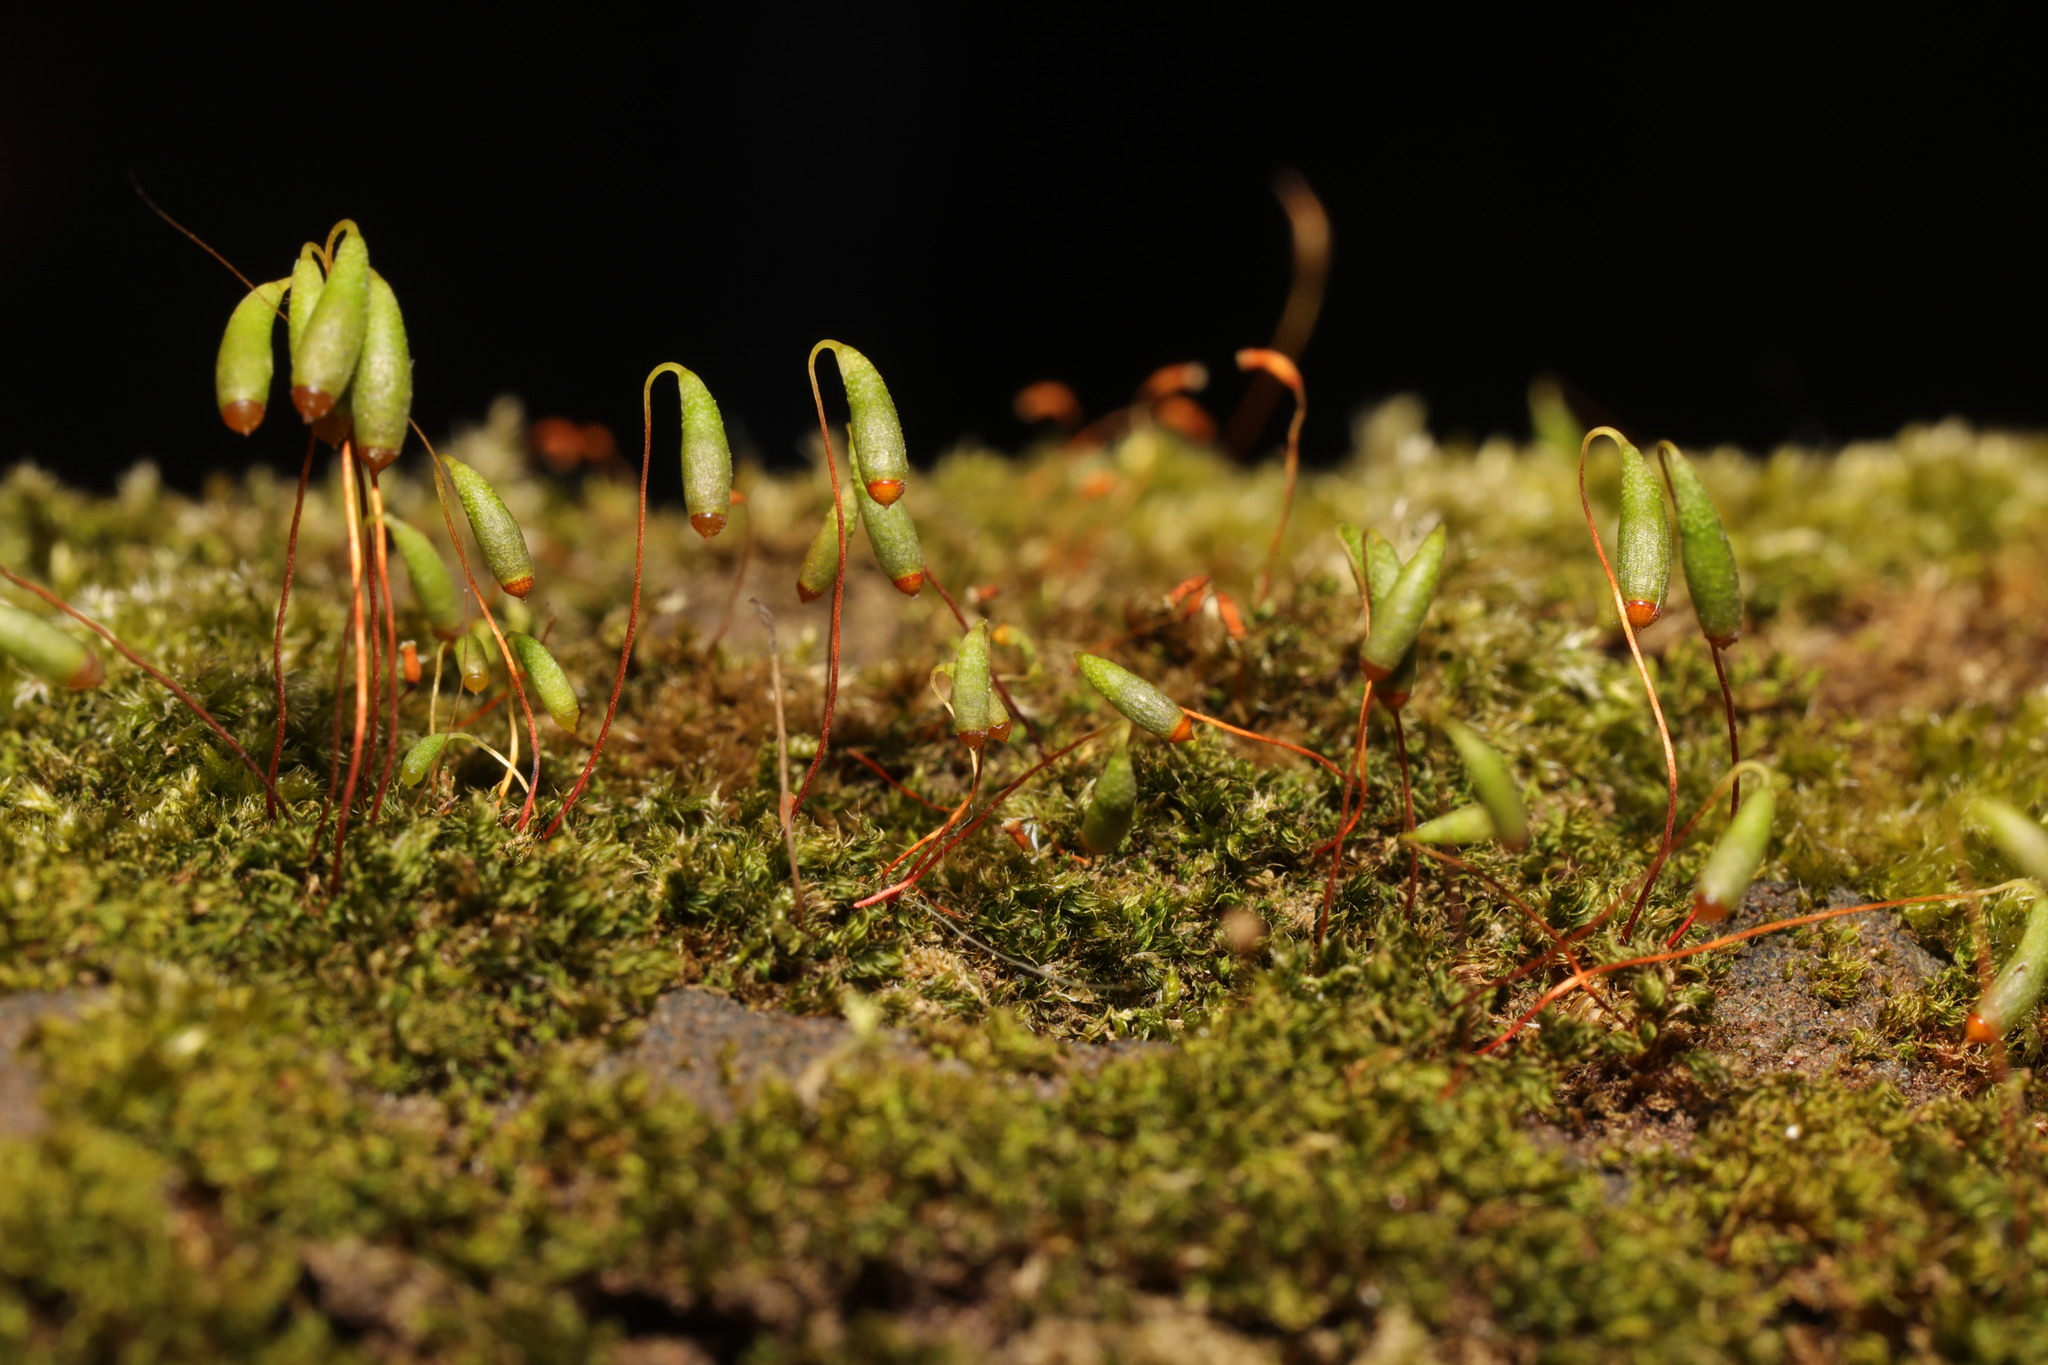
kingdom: Plantae
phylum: Bryophyta
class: Bryopsida
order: Bryales
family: Bryaceae
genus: Rosulabryum
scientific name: Rosulabryum capillare
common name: Capillary thread-moss
